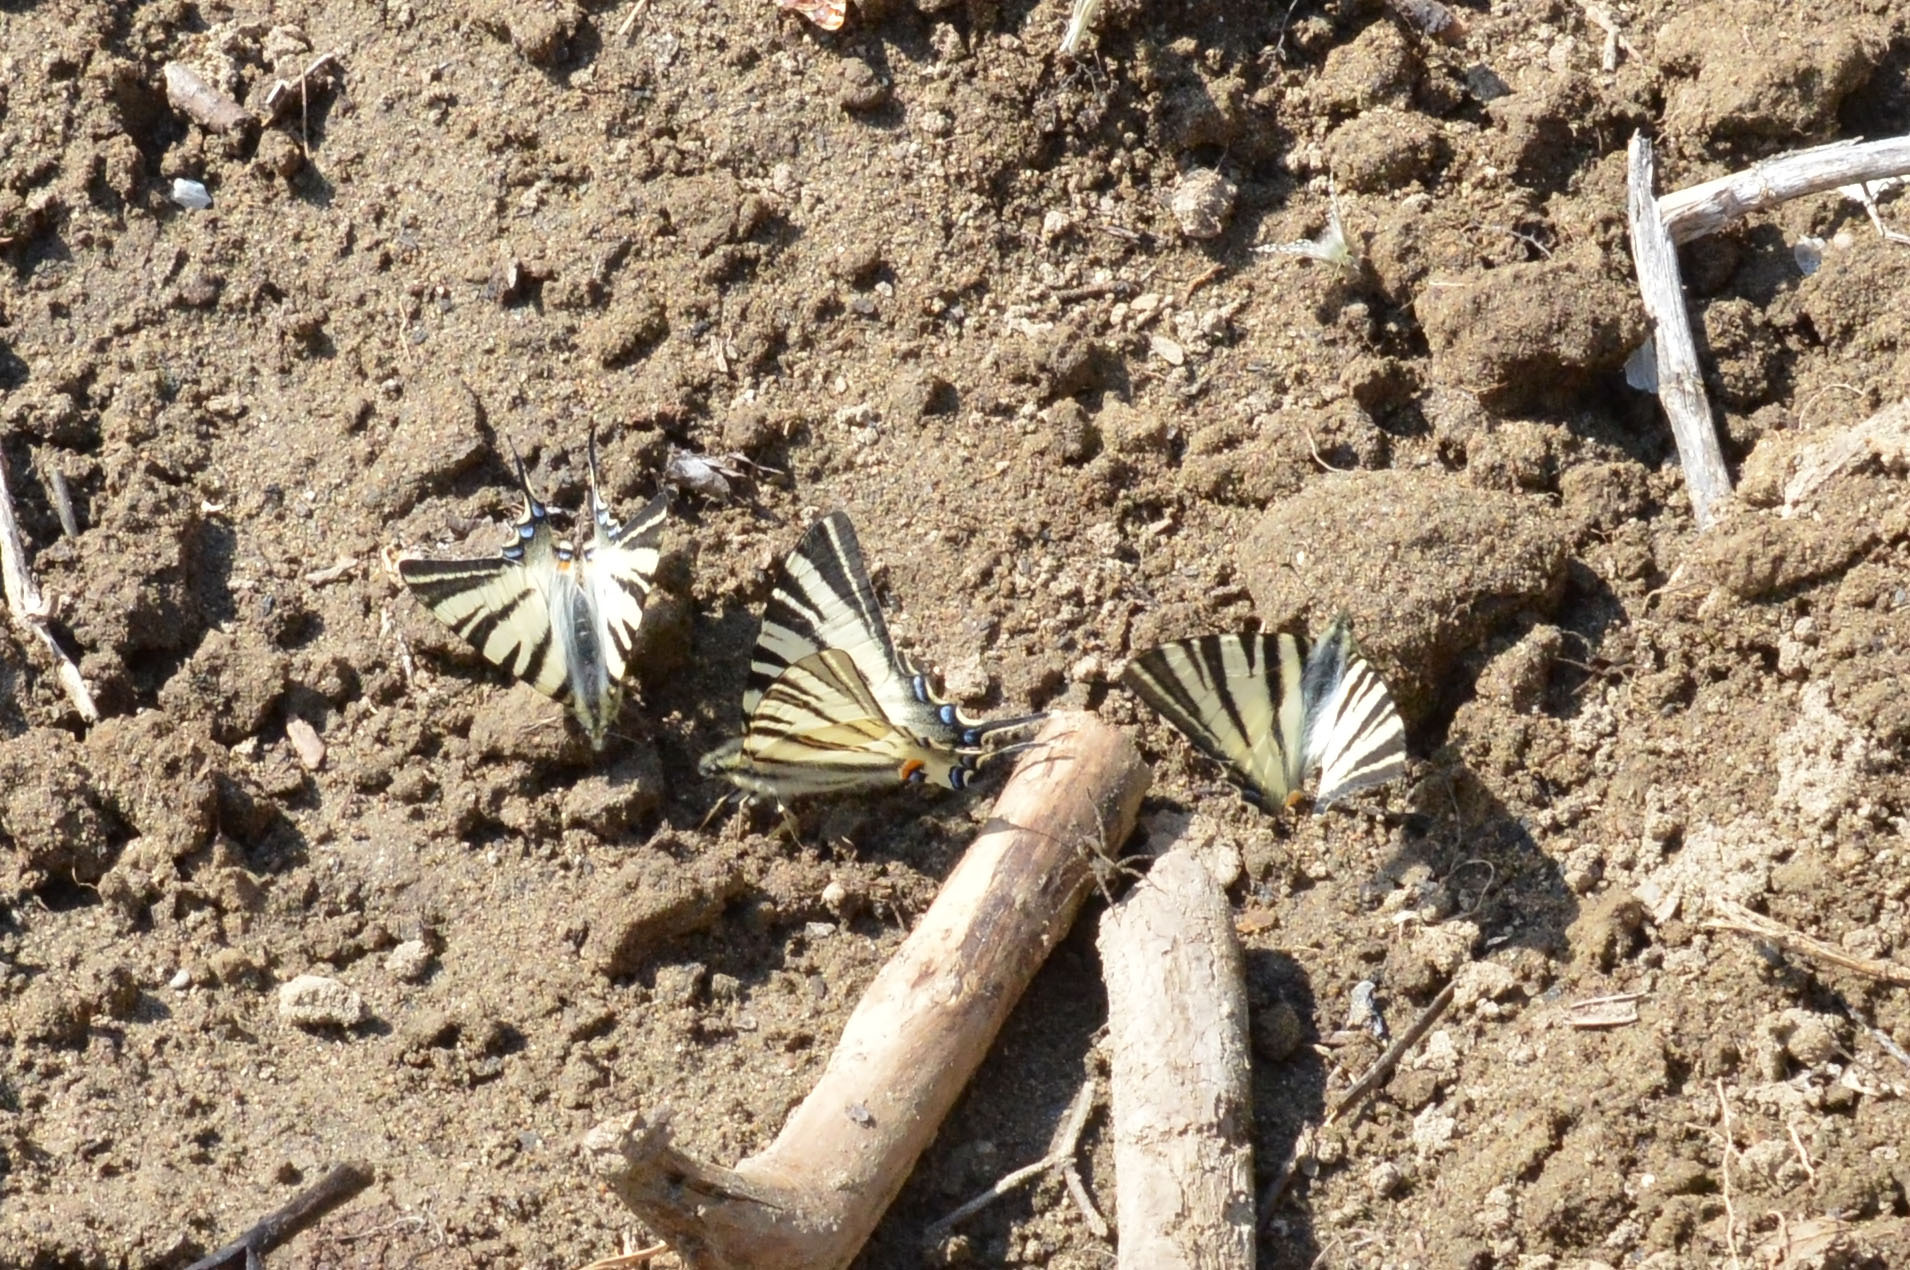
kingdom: Animalia
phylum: Arthropoda
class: Insecta
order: Lepidoptera
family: Papilionidae
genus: Iphiclides
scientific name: Iphiclides podalirius
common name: Scarce swallowtail
